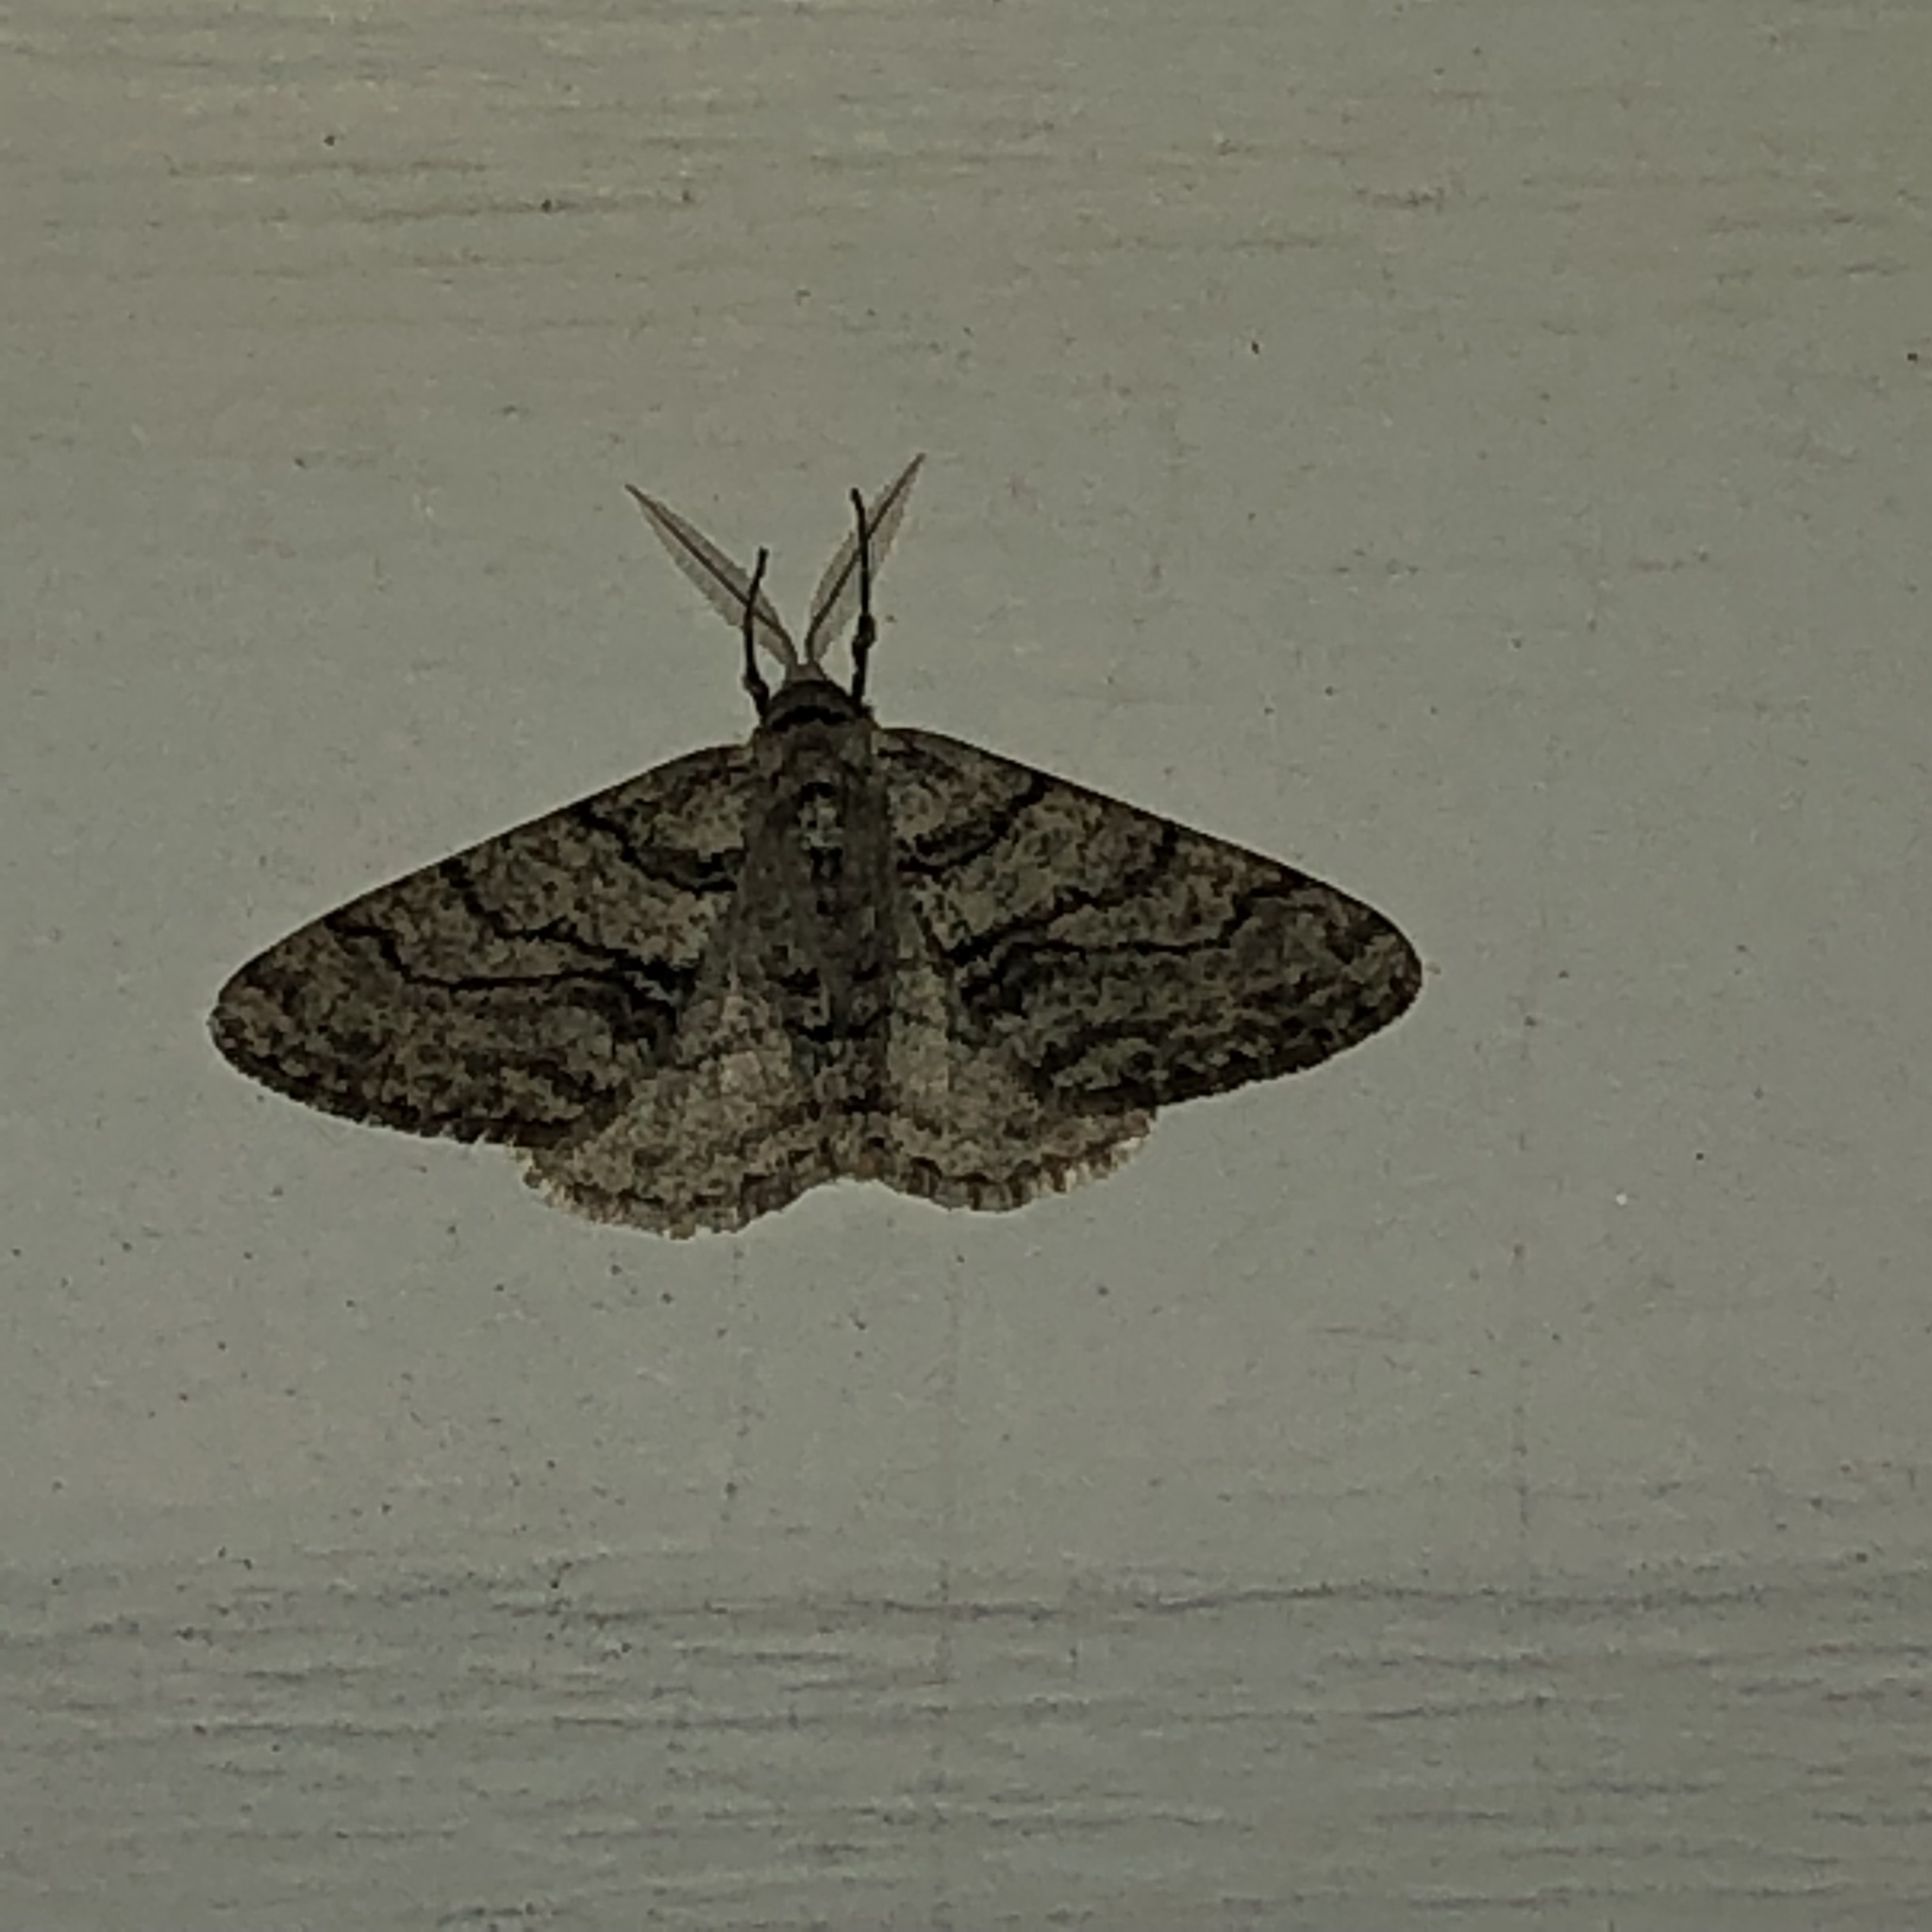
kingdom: Animalia
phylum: Arthropoda
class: Insecta
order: Lepidoptera
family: Geometridae
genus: Phigalia
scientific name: Phigalia titea
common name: Spiny looper
